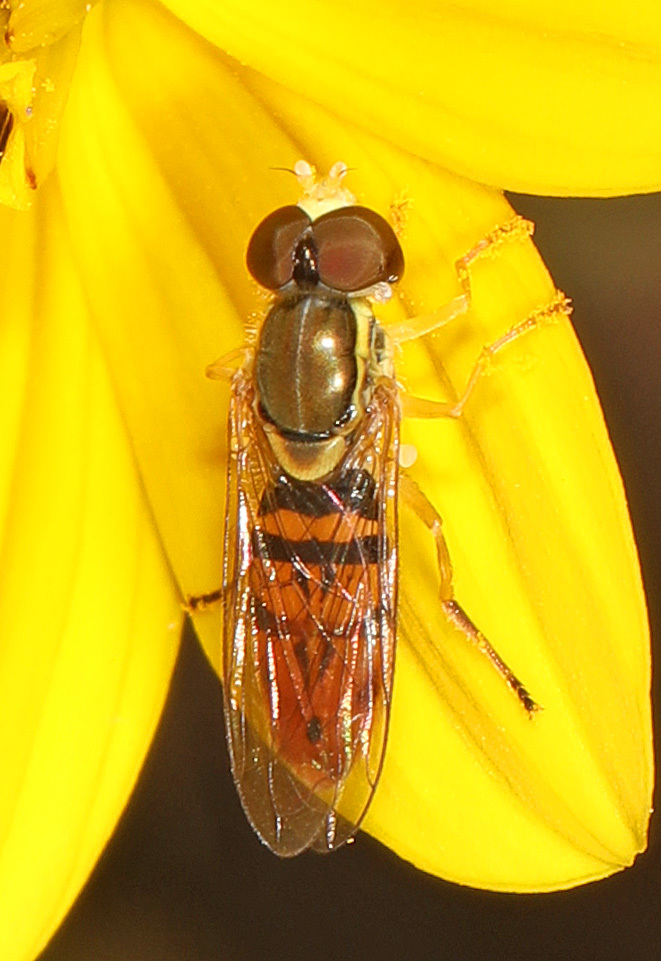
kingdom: Animalia
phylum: Arthropoda
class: Insecta
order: Diptera
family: Syrphidae
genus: Toxomerus
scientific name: Toxomerus marginatus
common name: Syrphid fly
